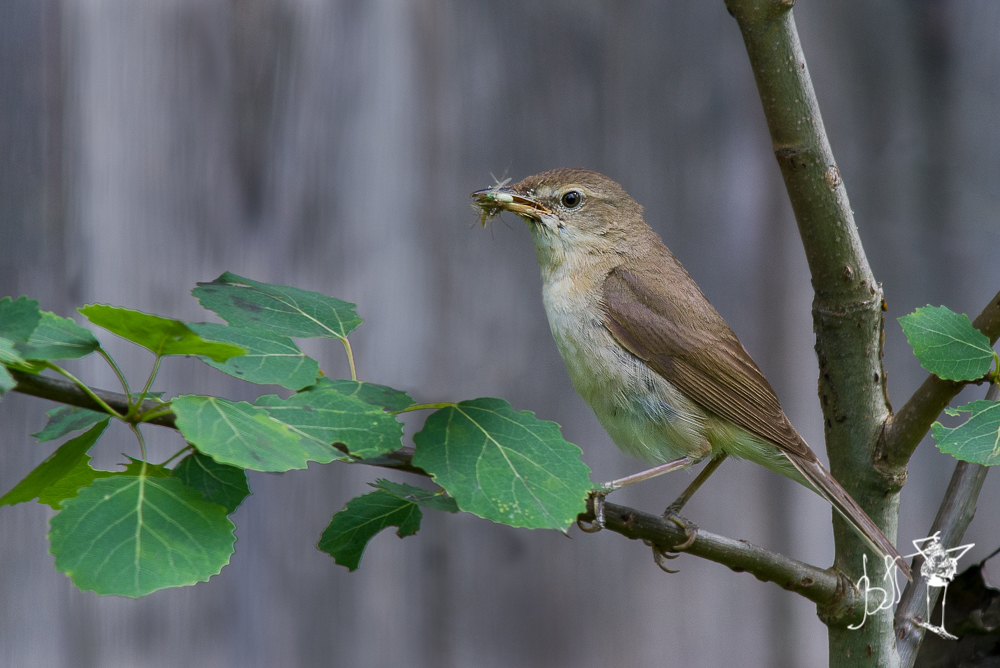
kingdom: Animalia
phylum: Chordata
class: Aves
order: Passeriformes
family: Acrocephalidae
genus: Acrocephalus
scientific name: Acrocephalus dumetorum
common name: Blyth's reed warbler
